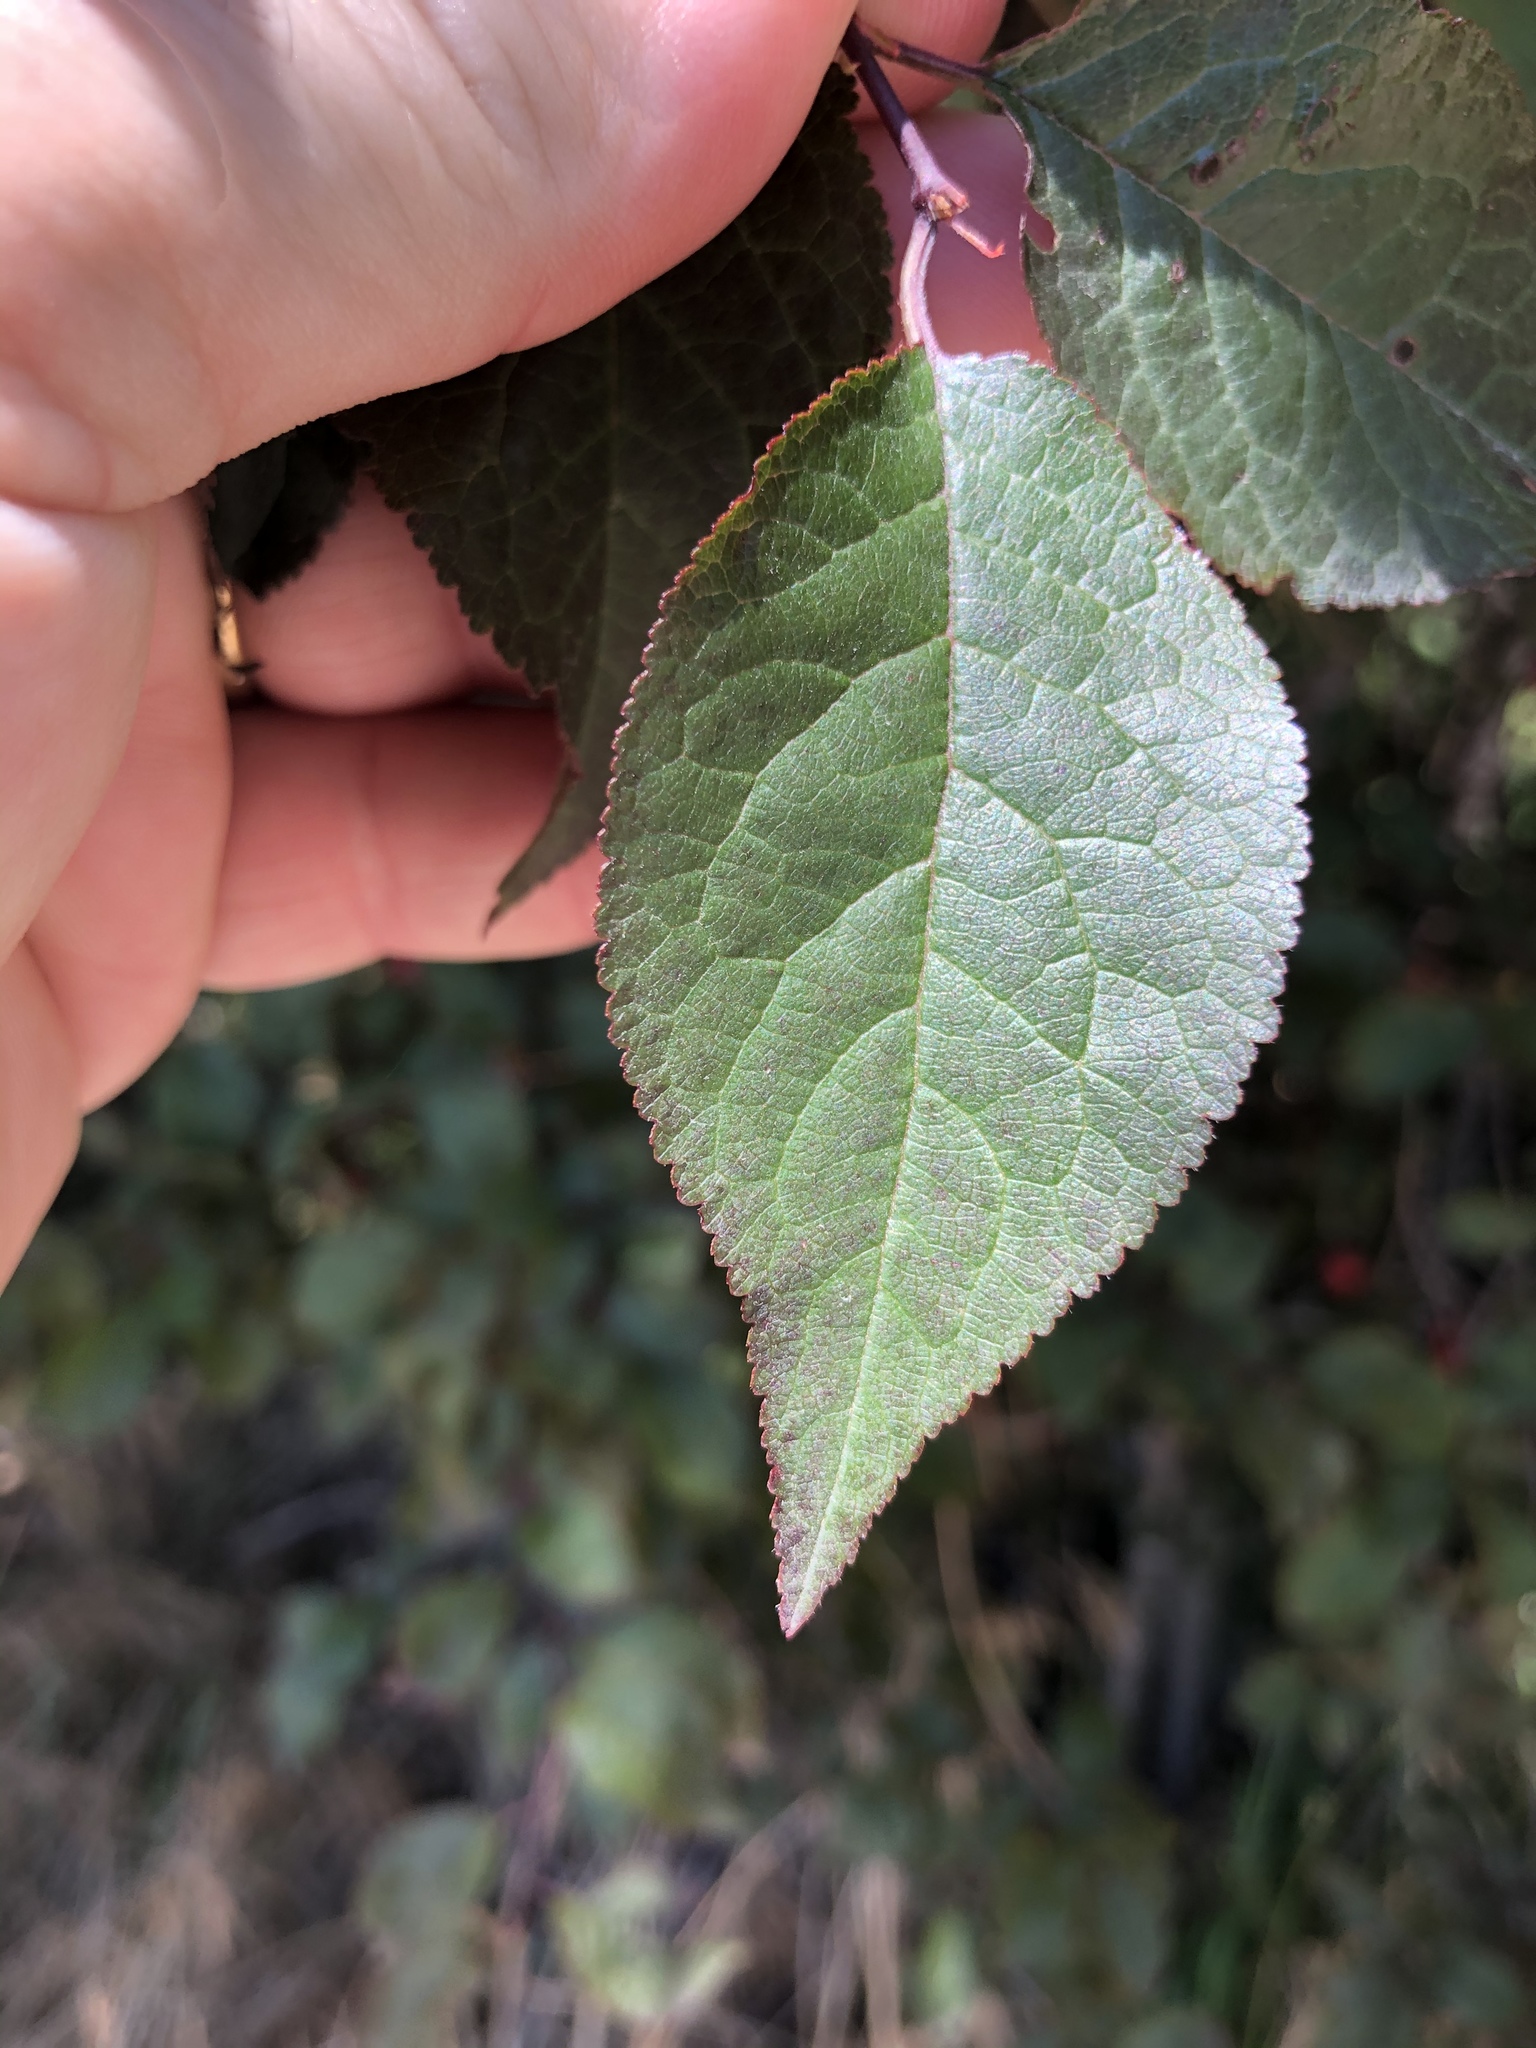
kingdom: Plantae
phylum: Tracheophyta
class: Magnoliopsida
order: Rosales
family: Rosaceae
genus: Prunus
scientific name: Prunus domestica
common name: Wild plum
